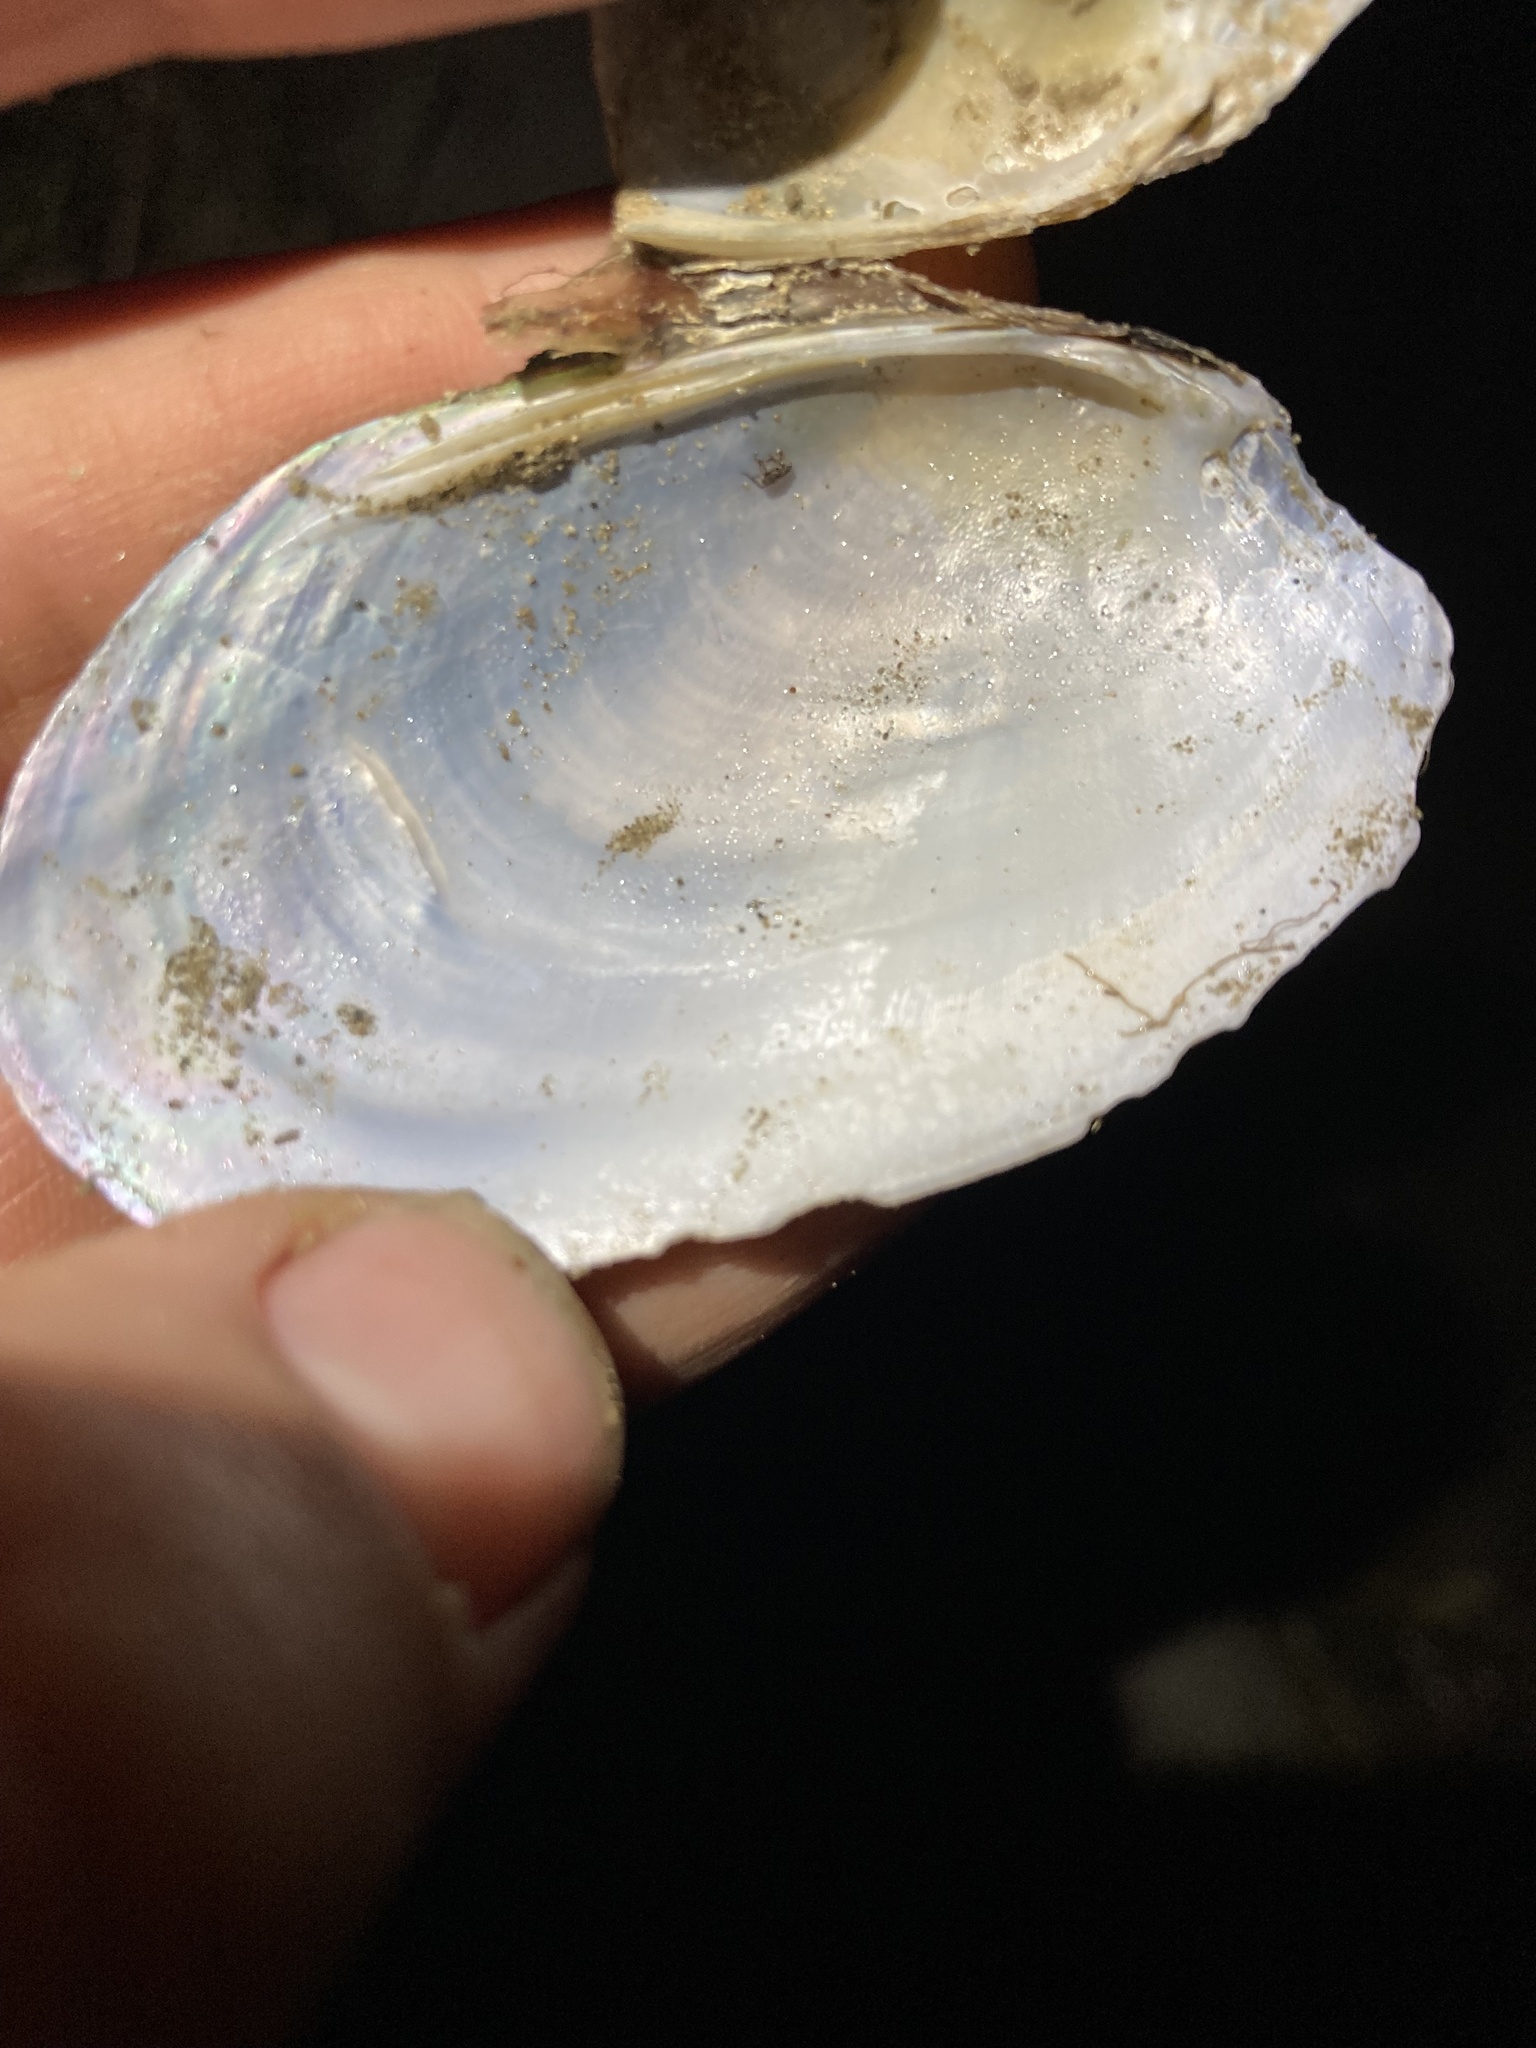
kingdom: Animalia
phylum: Mollusca
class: Bivalvia
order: Unionida
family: Hyriidae
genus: Echyridella
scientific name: Echyridella menziesii
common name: New zealand freshwater mussel
